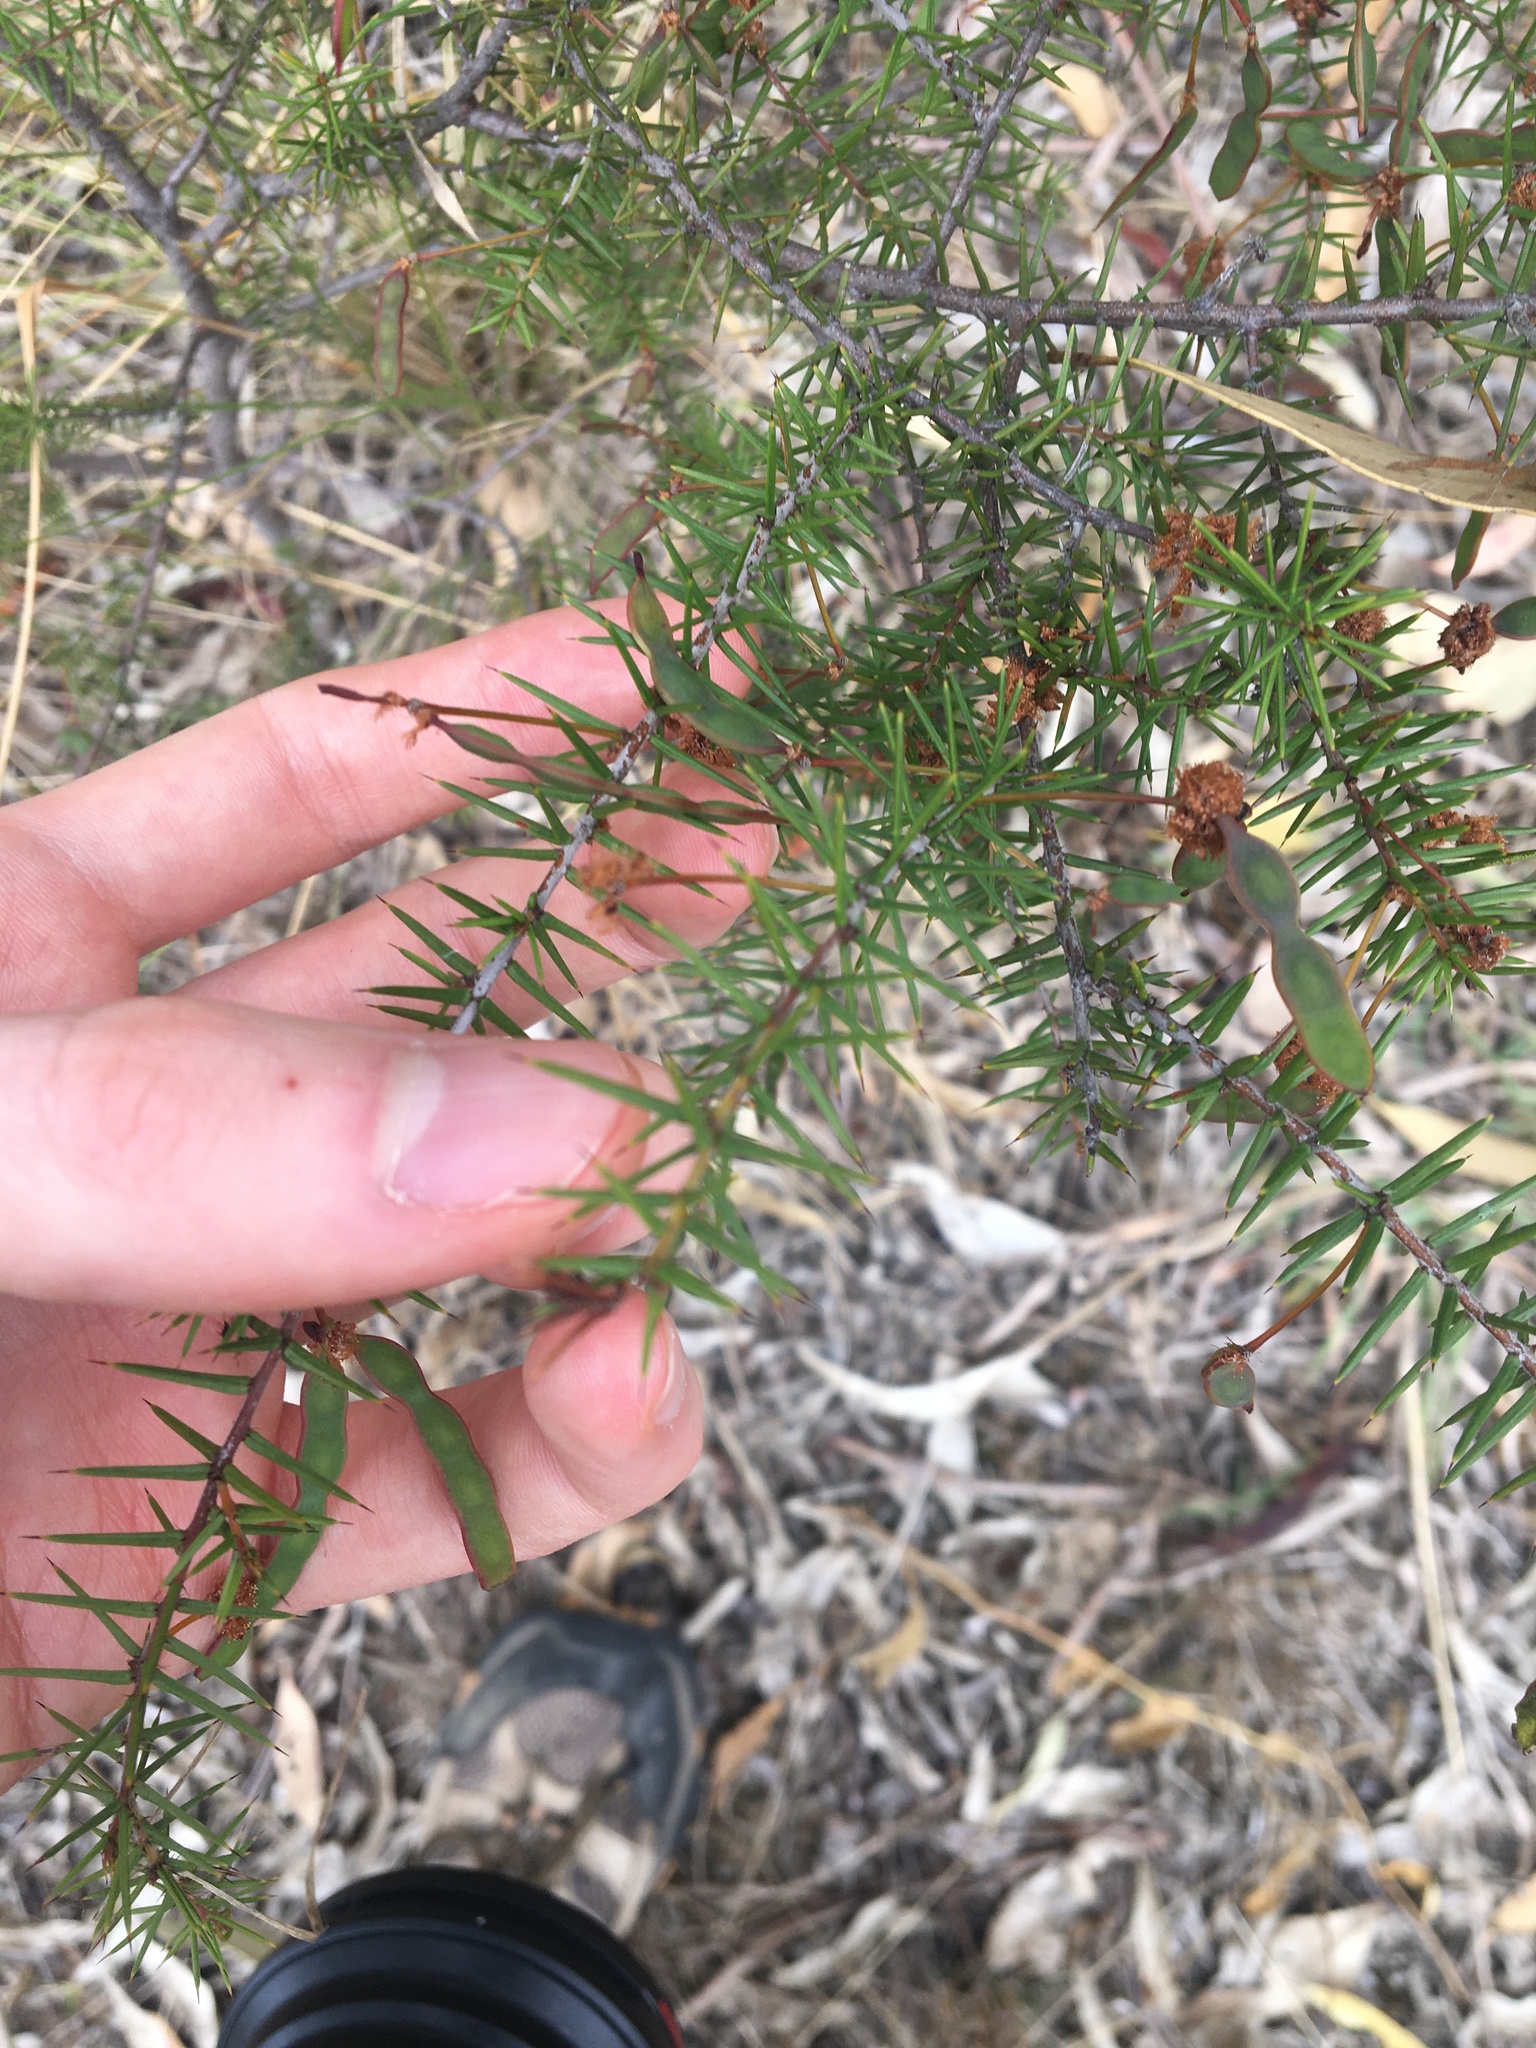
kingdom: Plantae
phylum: Tracheophyta
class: Magnoliopsida
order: Fabales
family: Fabaceae
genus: Acacia
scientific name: Acacia ulicifolia
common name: Juniper wattle
